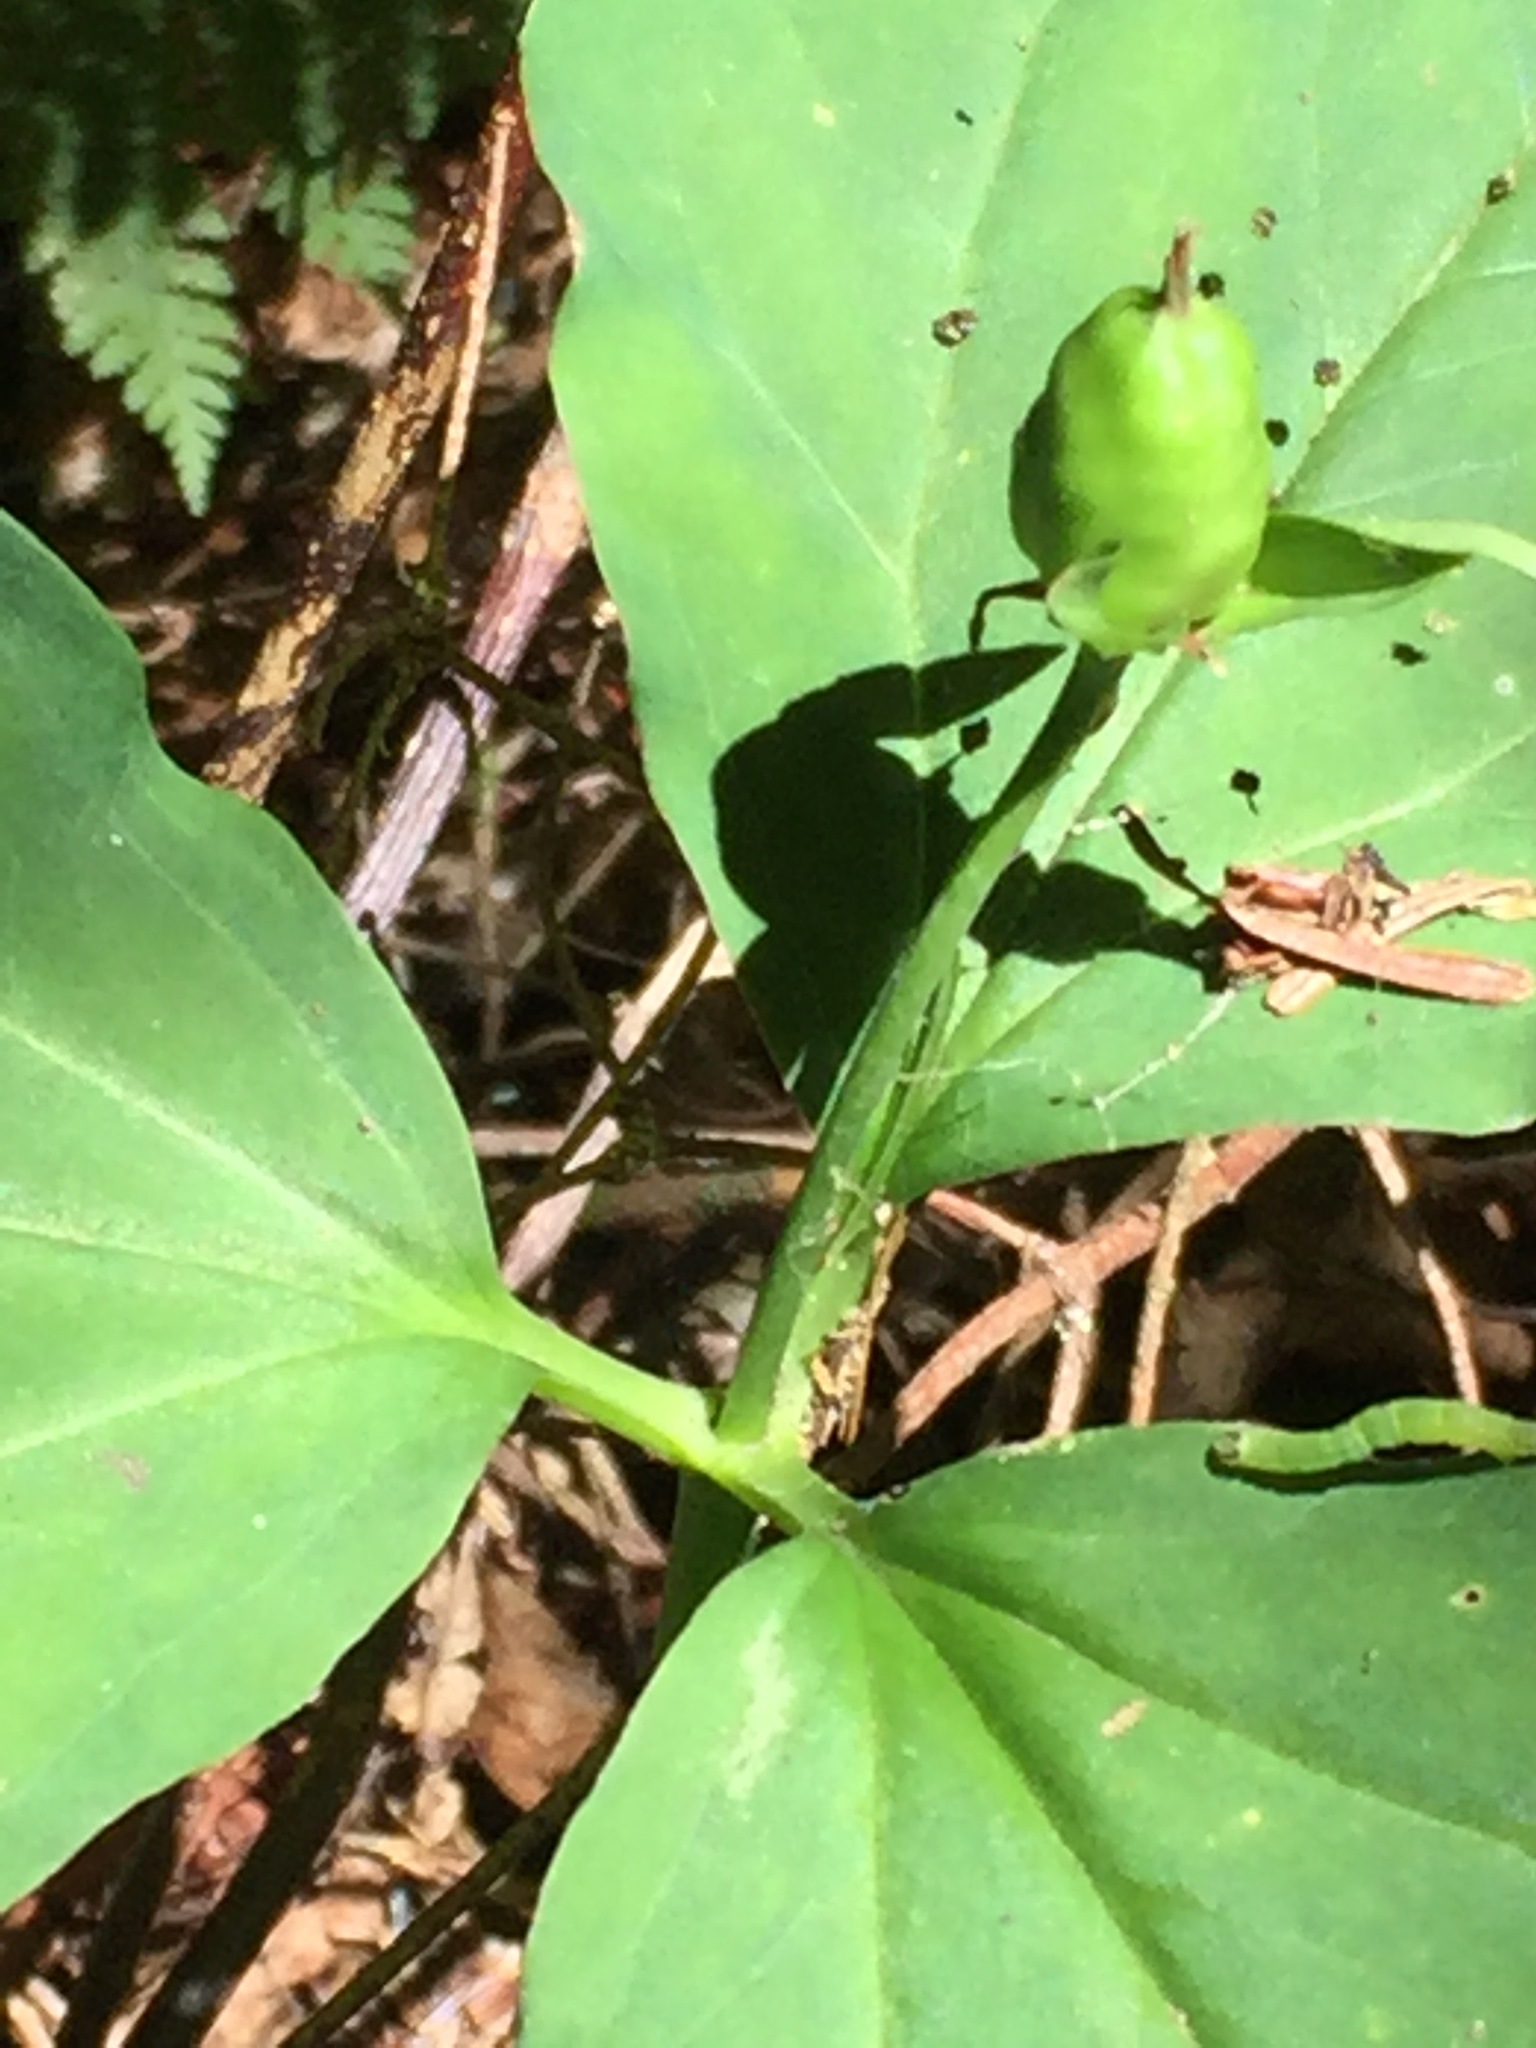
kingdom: Plantae
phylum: Tracheophyta
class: Liliopsida
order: Liliales
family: Melanthiaceae
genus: Trillium
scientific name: Trillium undulatum
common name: Paint trillium
